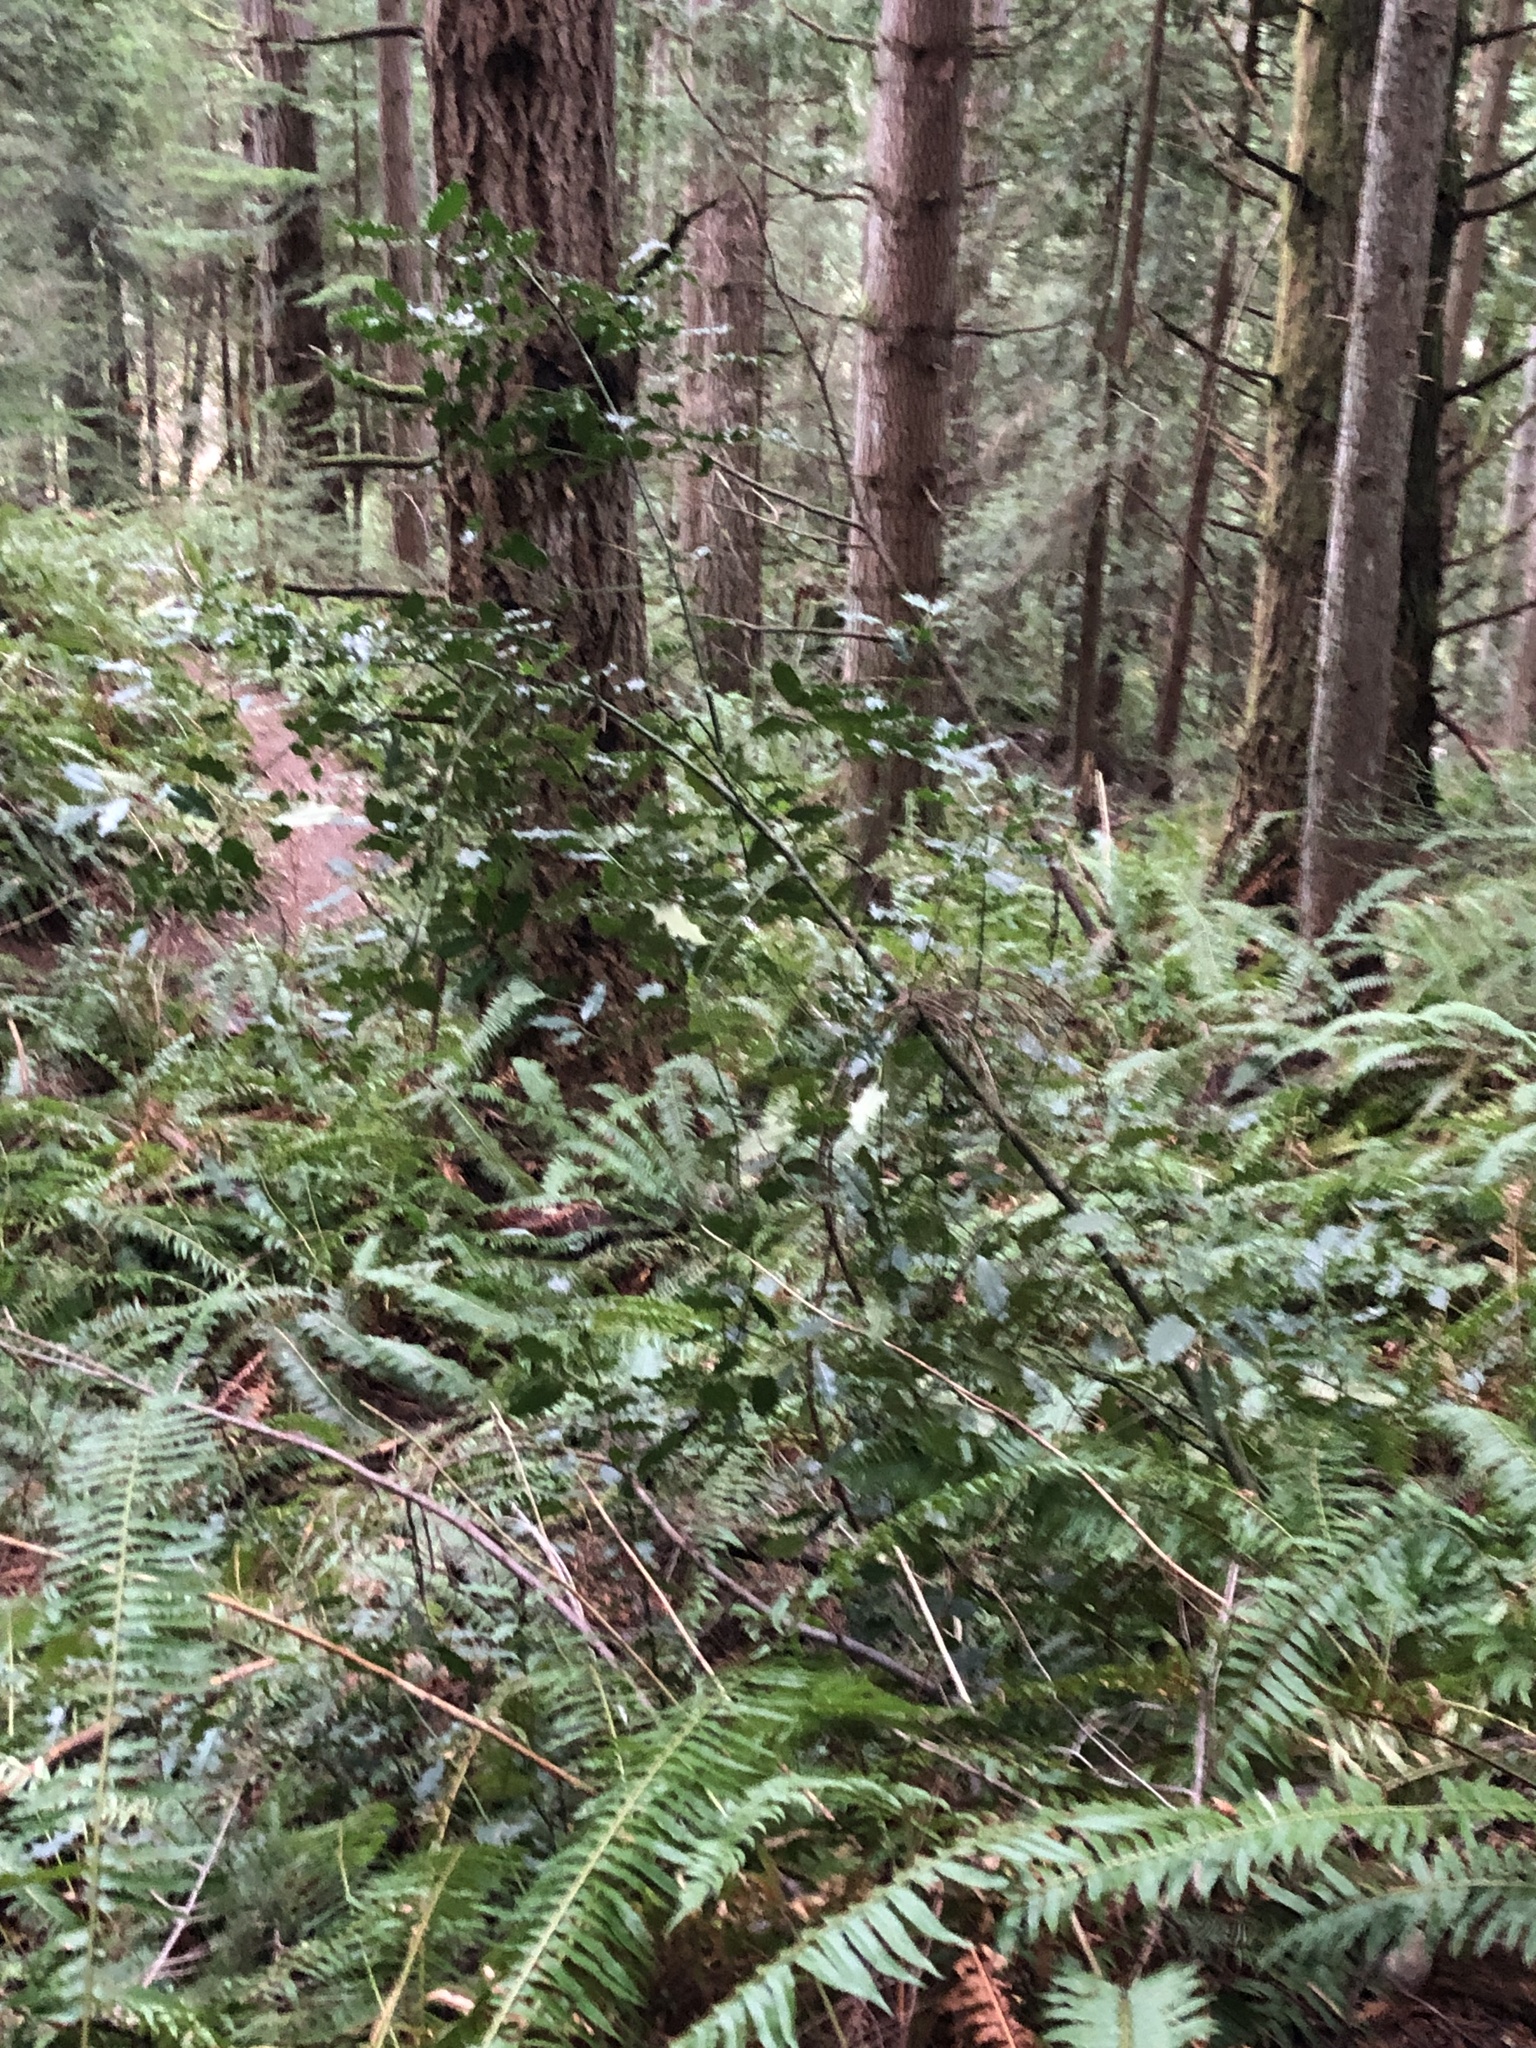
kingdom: Plantae
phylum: Tracheophyta
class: Magnoliopsida
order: Aquifoliales
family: Aquifoliaceae
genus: Ilex
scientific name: Ilex aquifolium
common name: English holly
